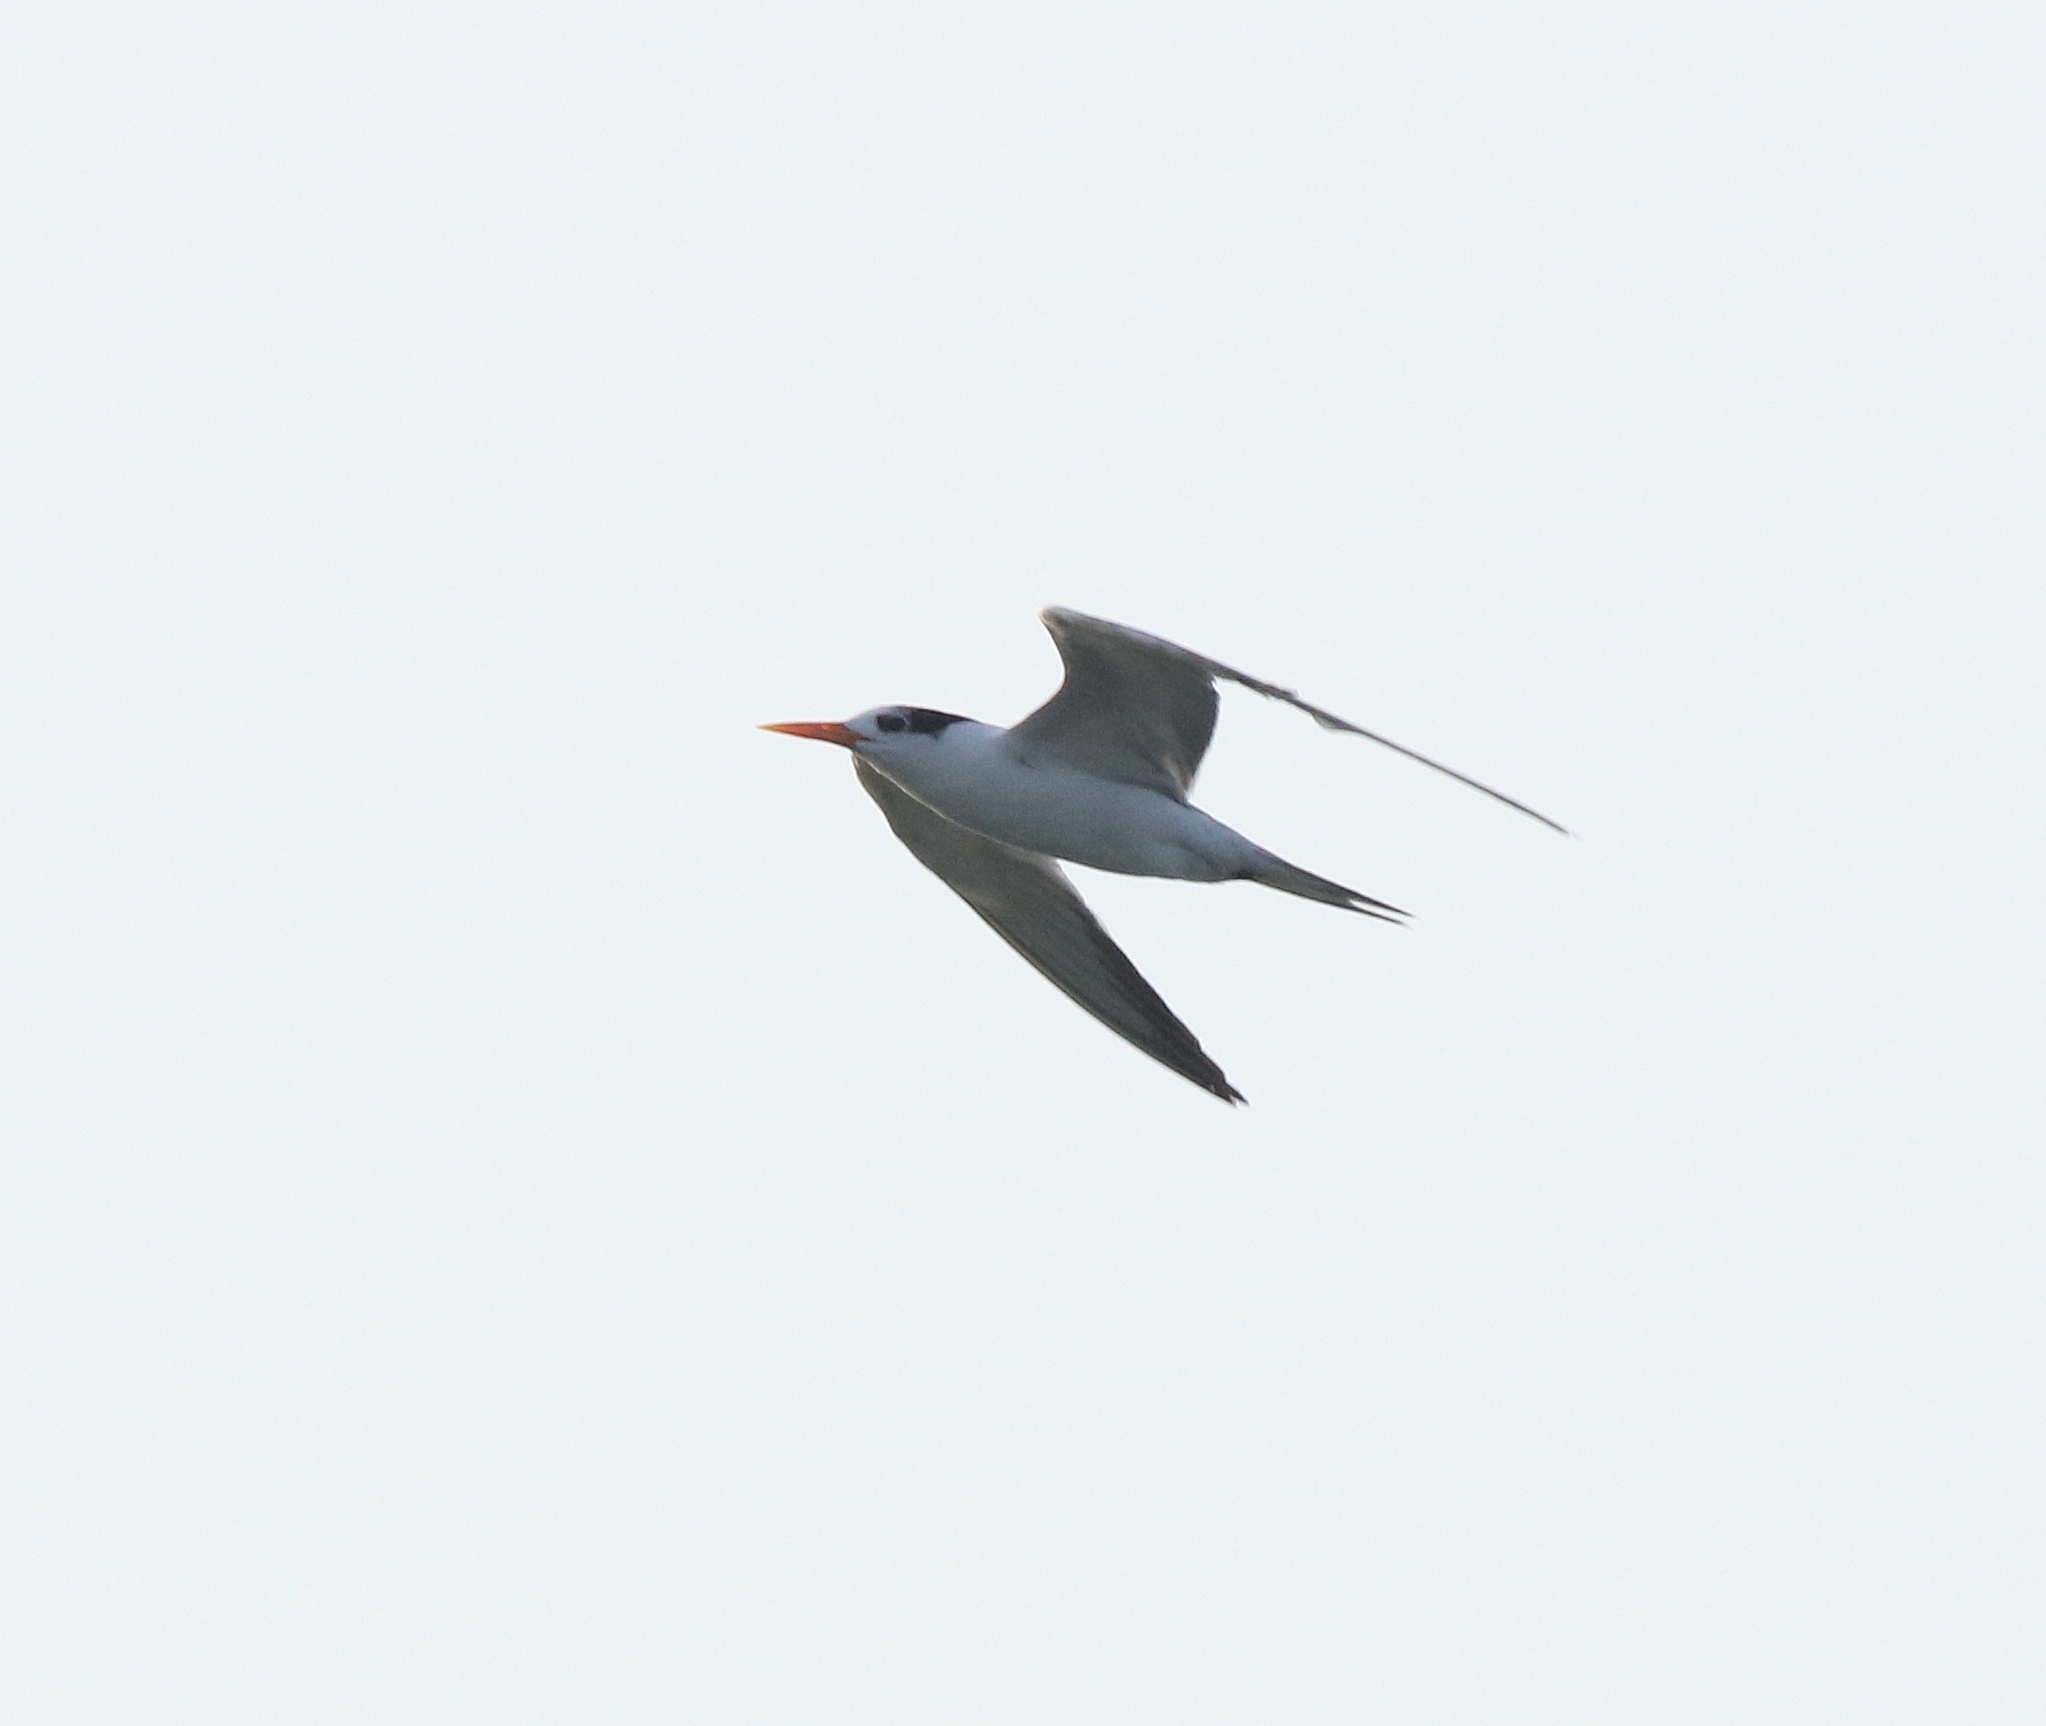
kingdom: Animalia
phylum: Chordata
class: Aves
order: Charadriiformes
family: Laridae
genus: Thalasseus
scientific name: Thalasseus bengalensis
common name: Lesser crested tern
